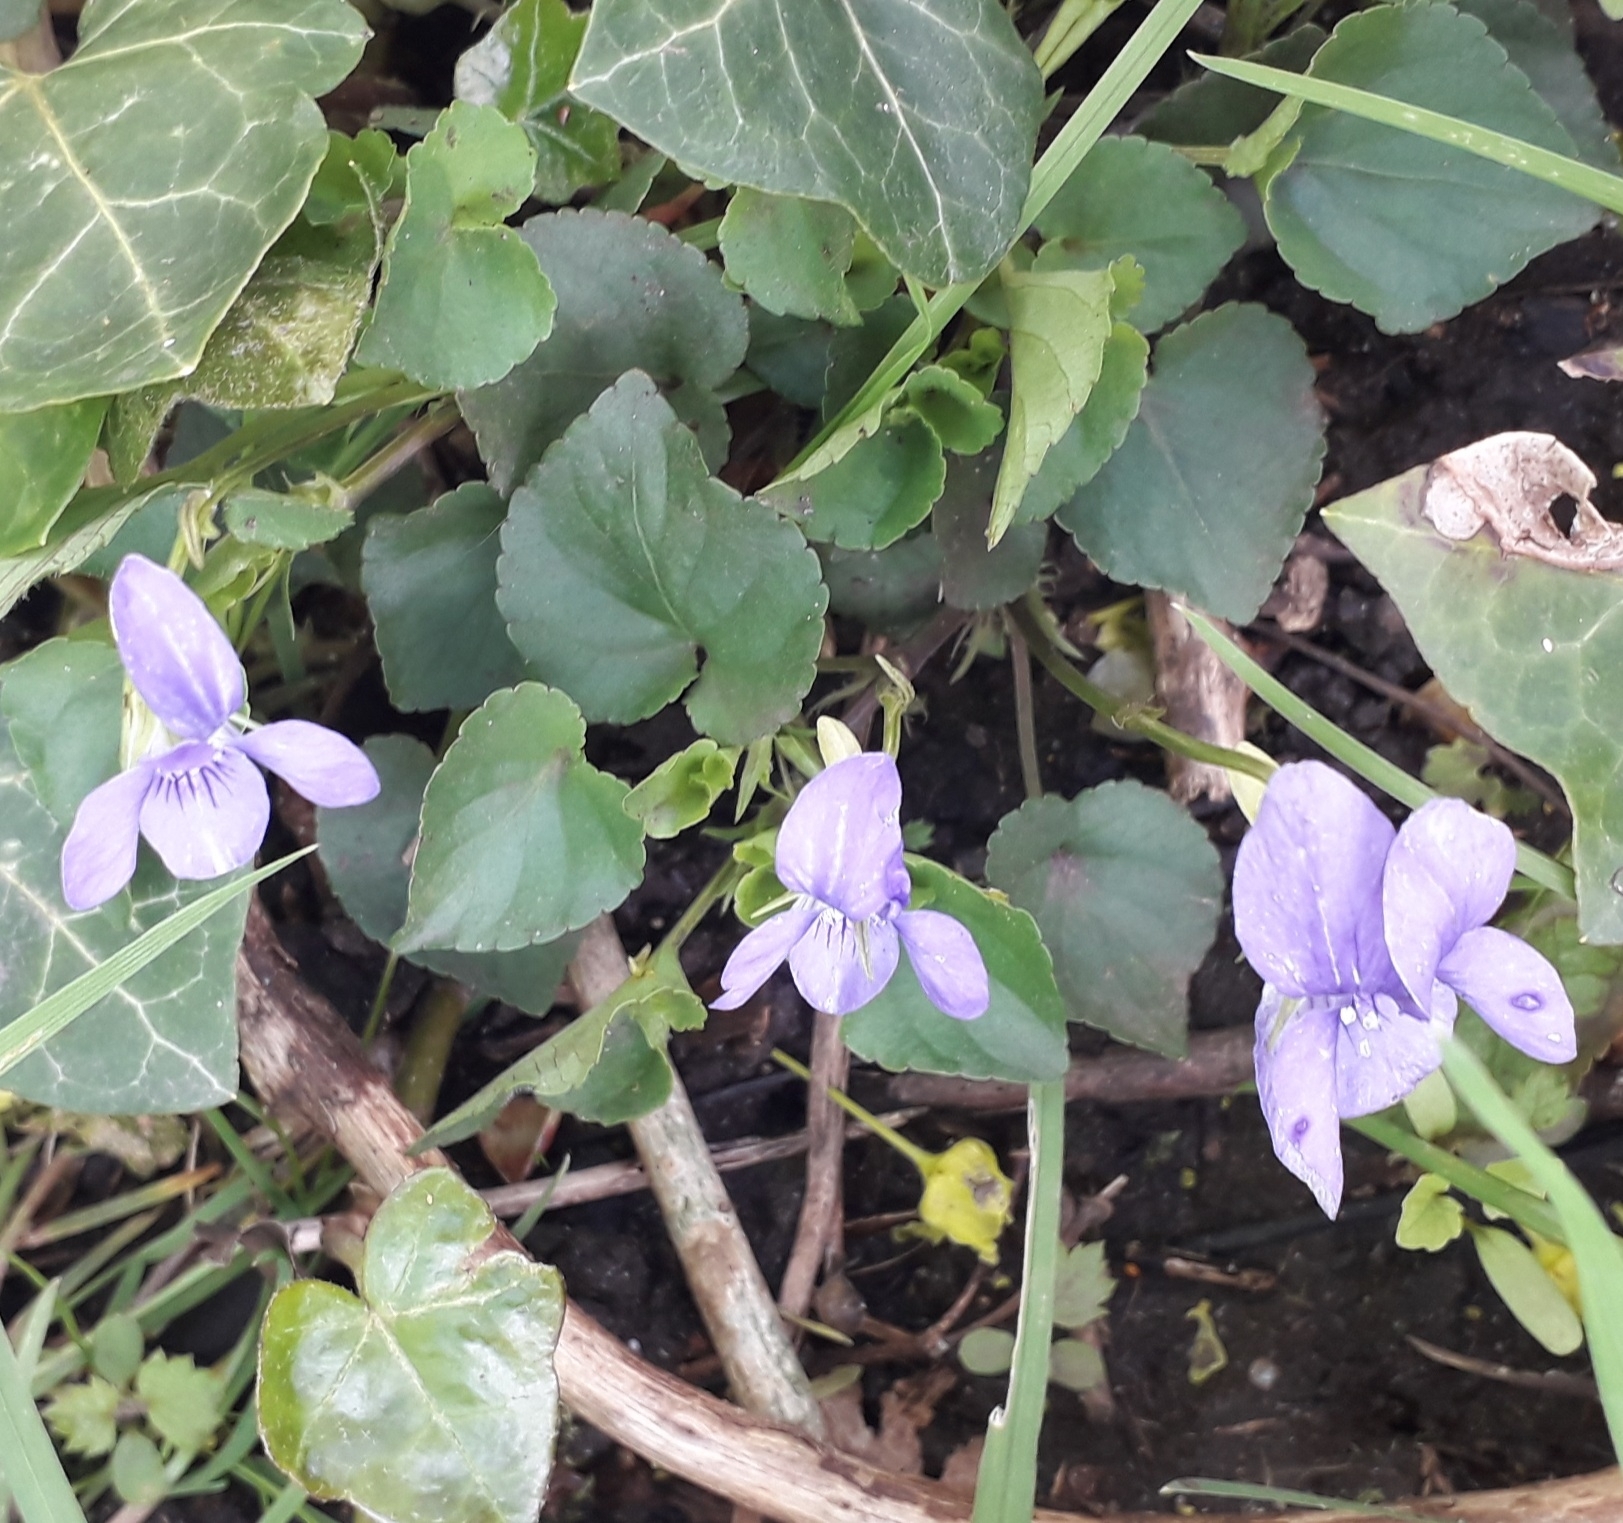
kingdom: Plantae
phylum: Tracheophyta
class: Magnoliopsida
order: Malpighiales
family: Violaceae
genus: Viola
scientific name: Viola riviniana
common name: Common dog-violet
